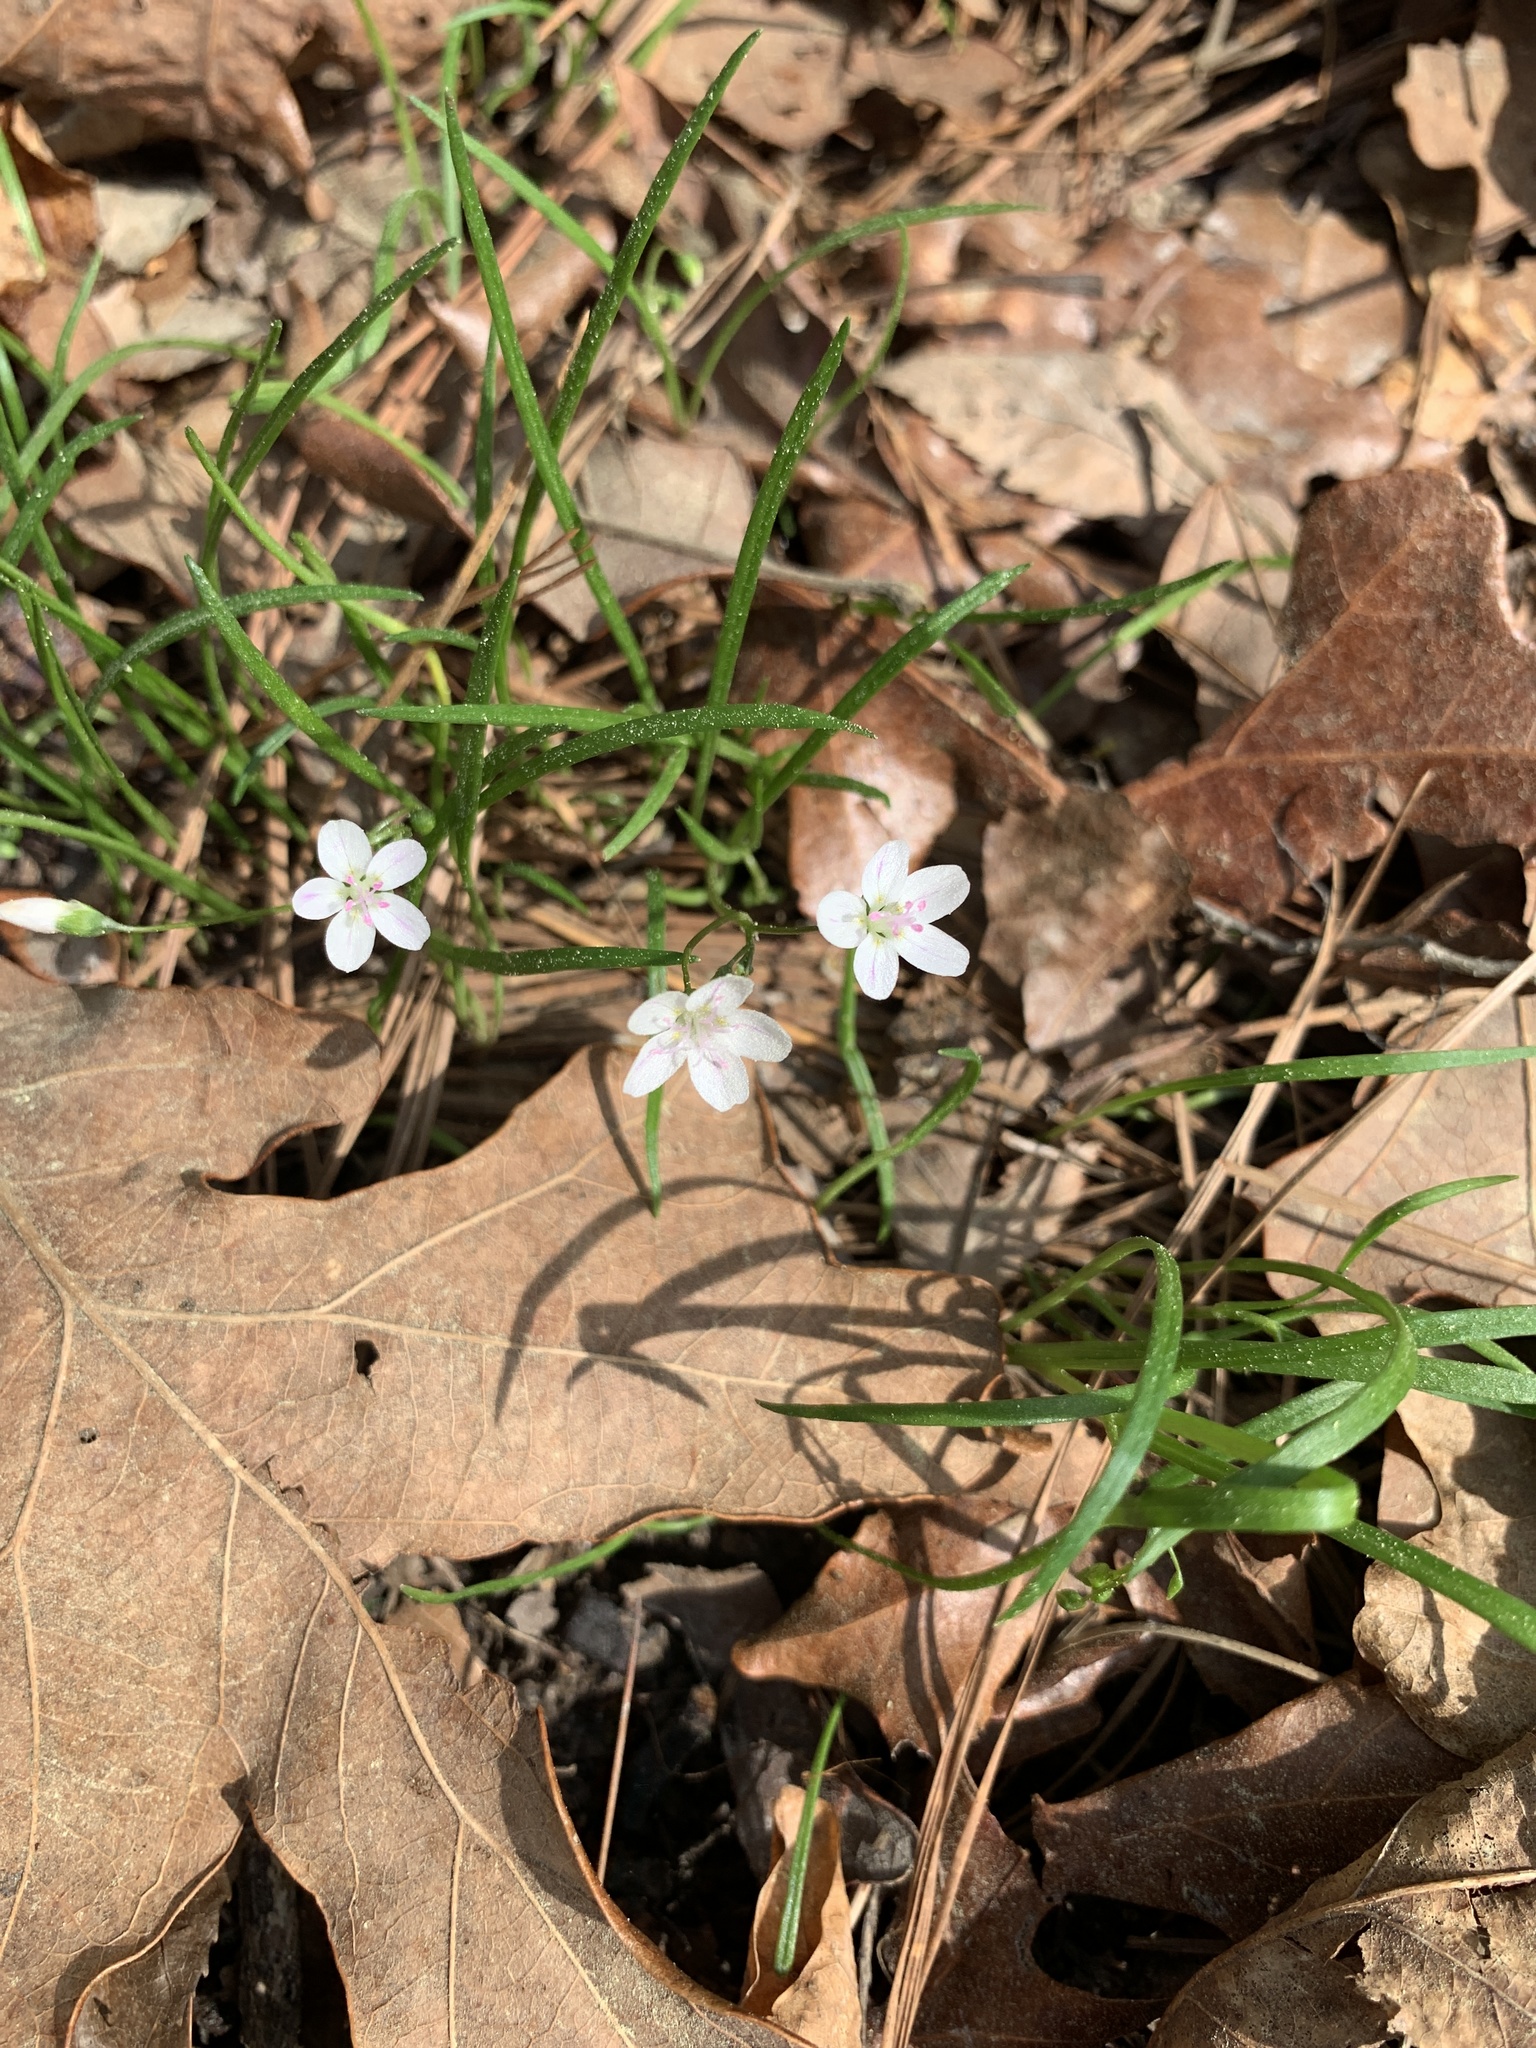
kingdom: Plantae
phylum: Tracheophyta
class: Magnoliopsida
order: Caryophyllales
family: Montiaceae
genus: Claytonia
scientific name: Claytonia virginica
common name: Virginia springbeauty
